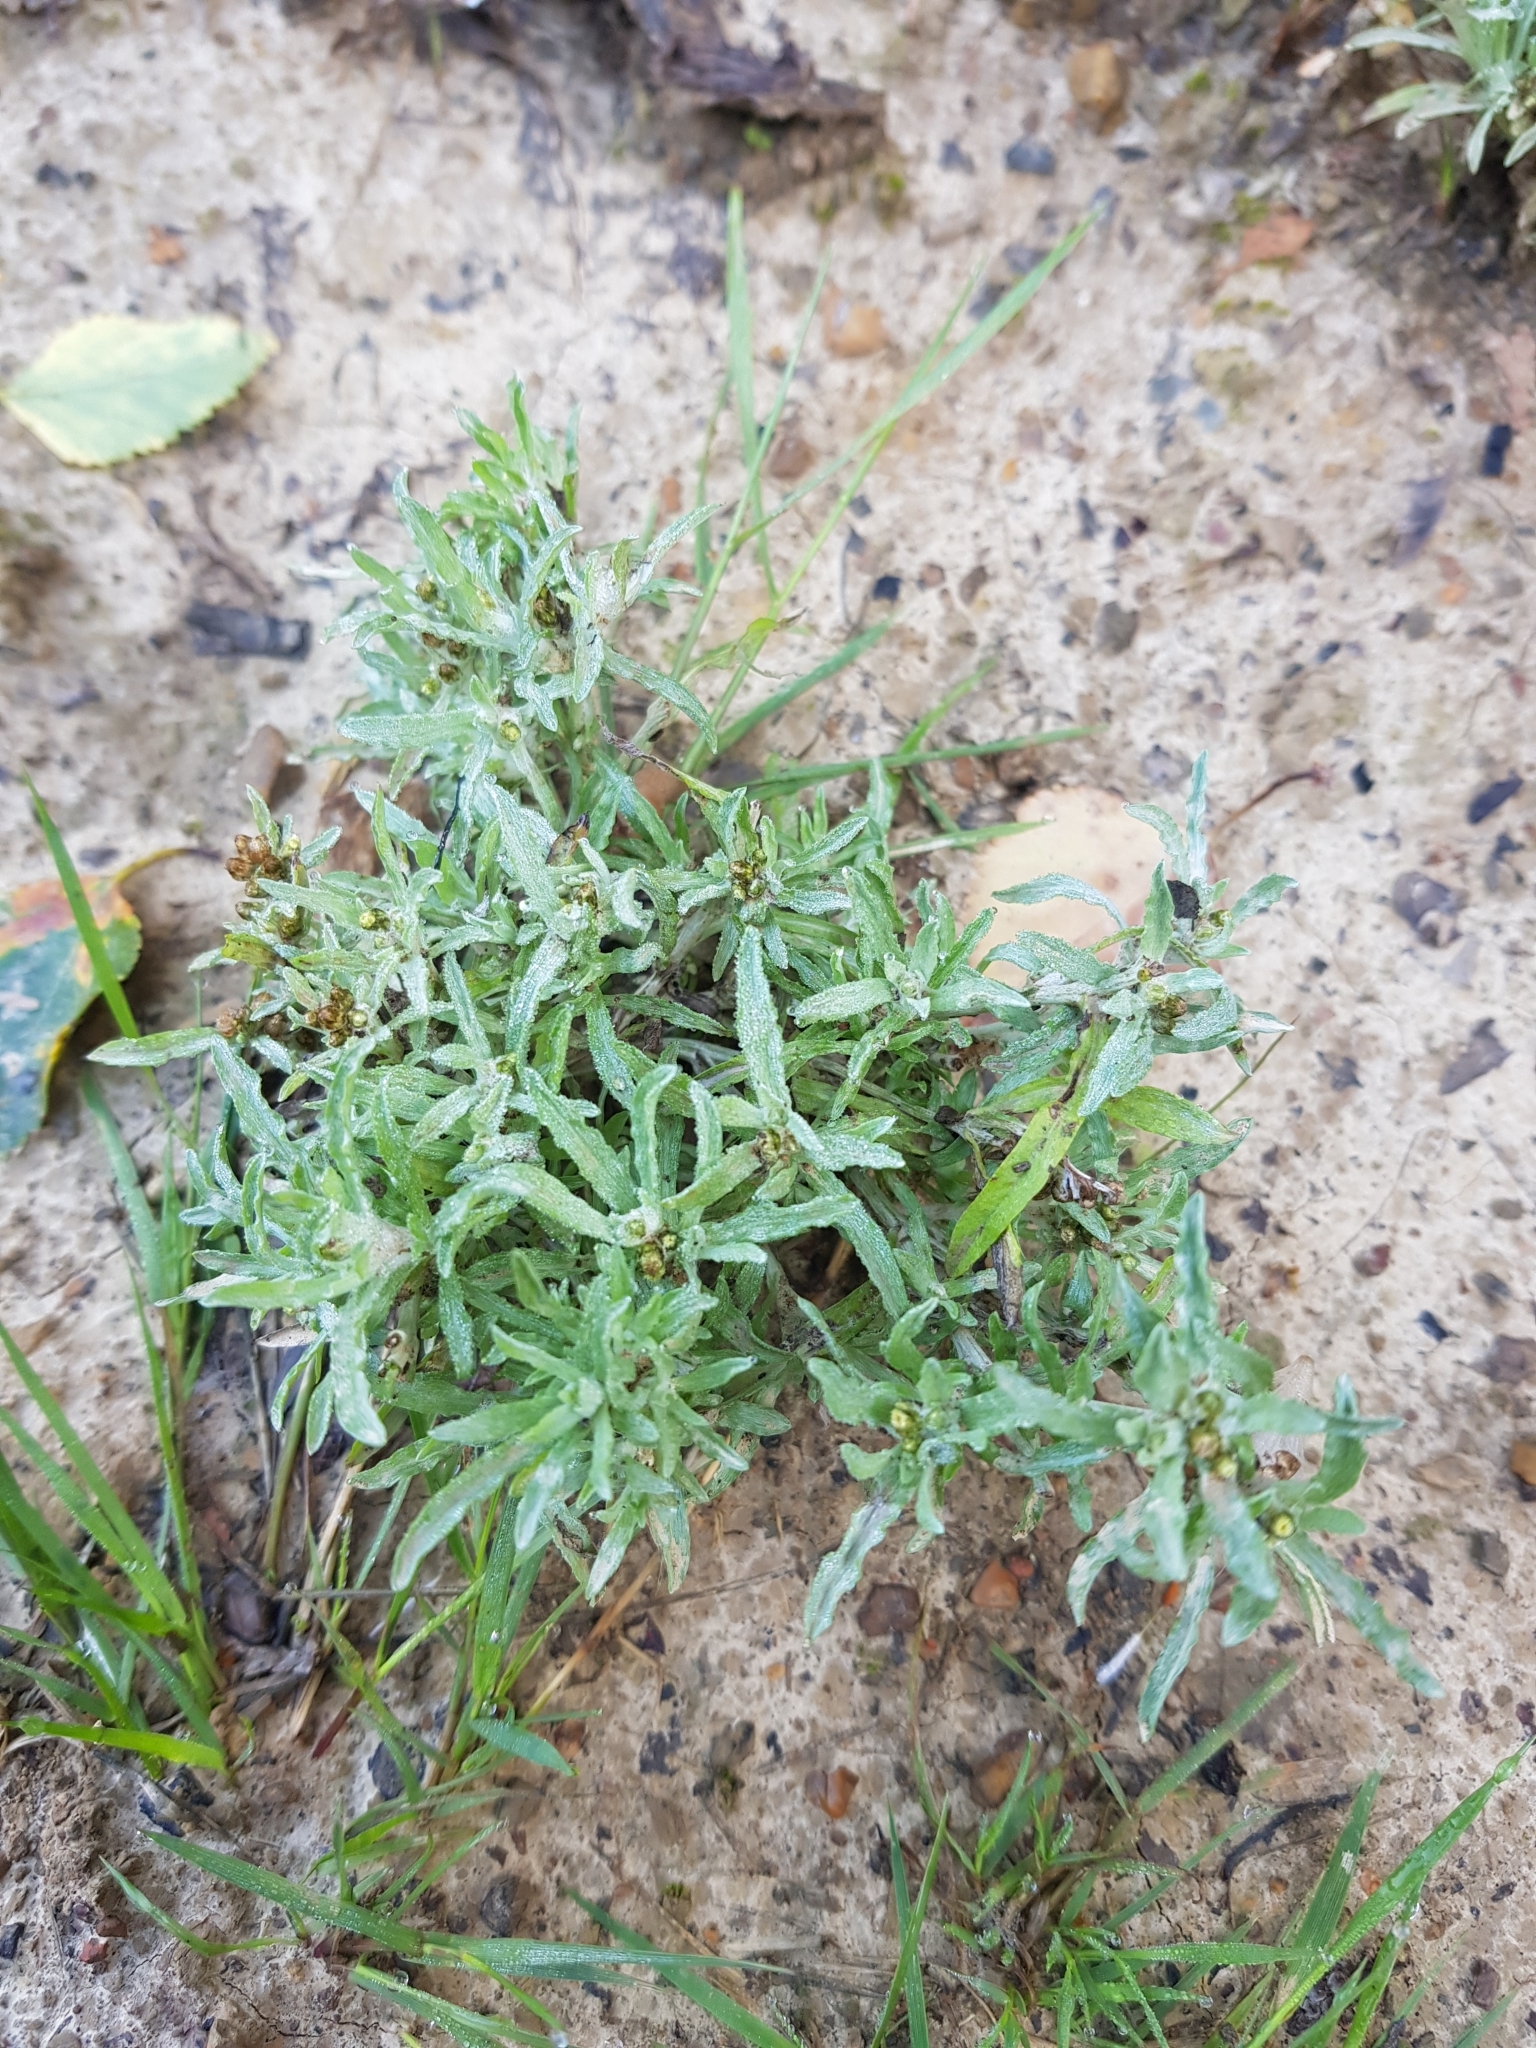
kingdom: Plantae
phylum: Tracheophyta
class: Magnoliopsida
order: Asterales
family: Asteraceae
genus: Gnaphalium
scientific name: Gnaphalium uliginosum
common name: Marsh cudweed
